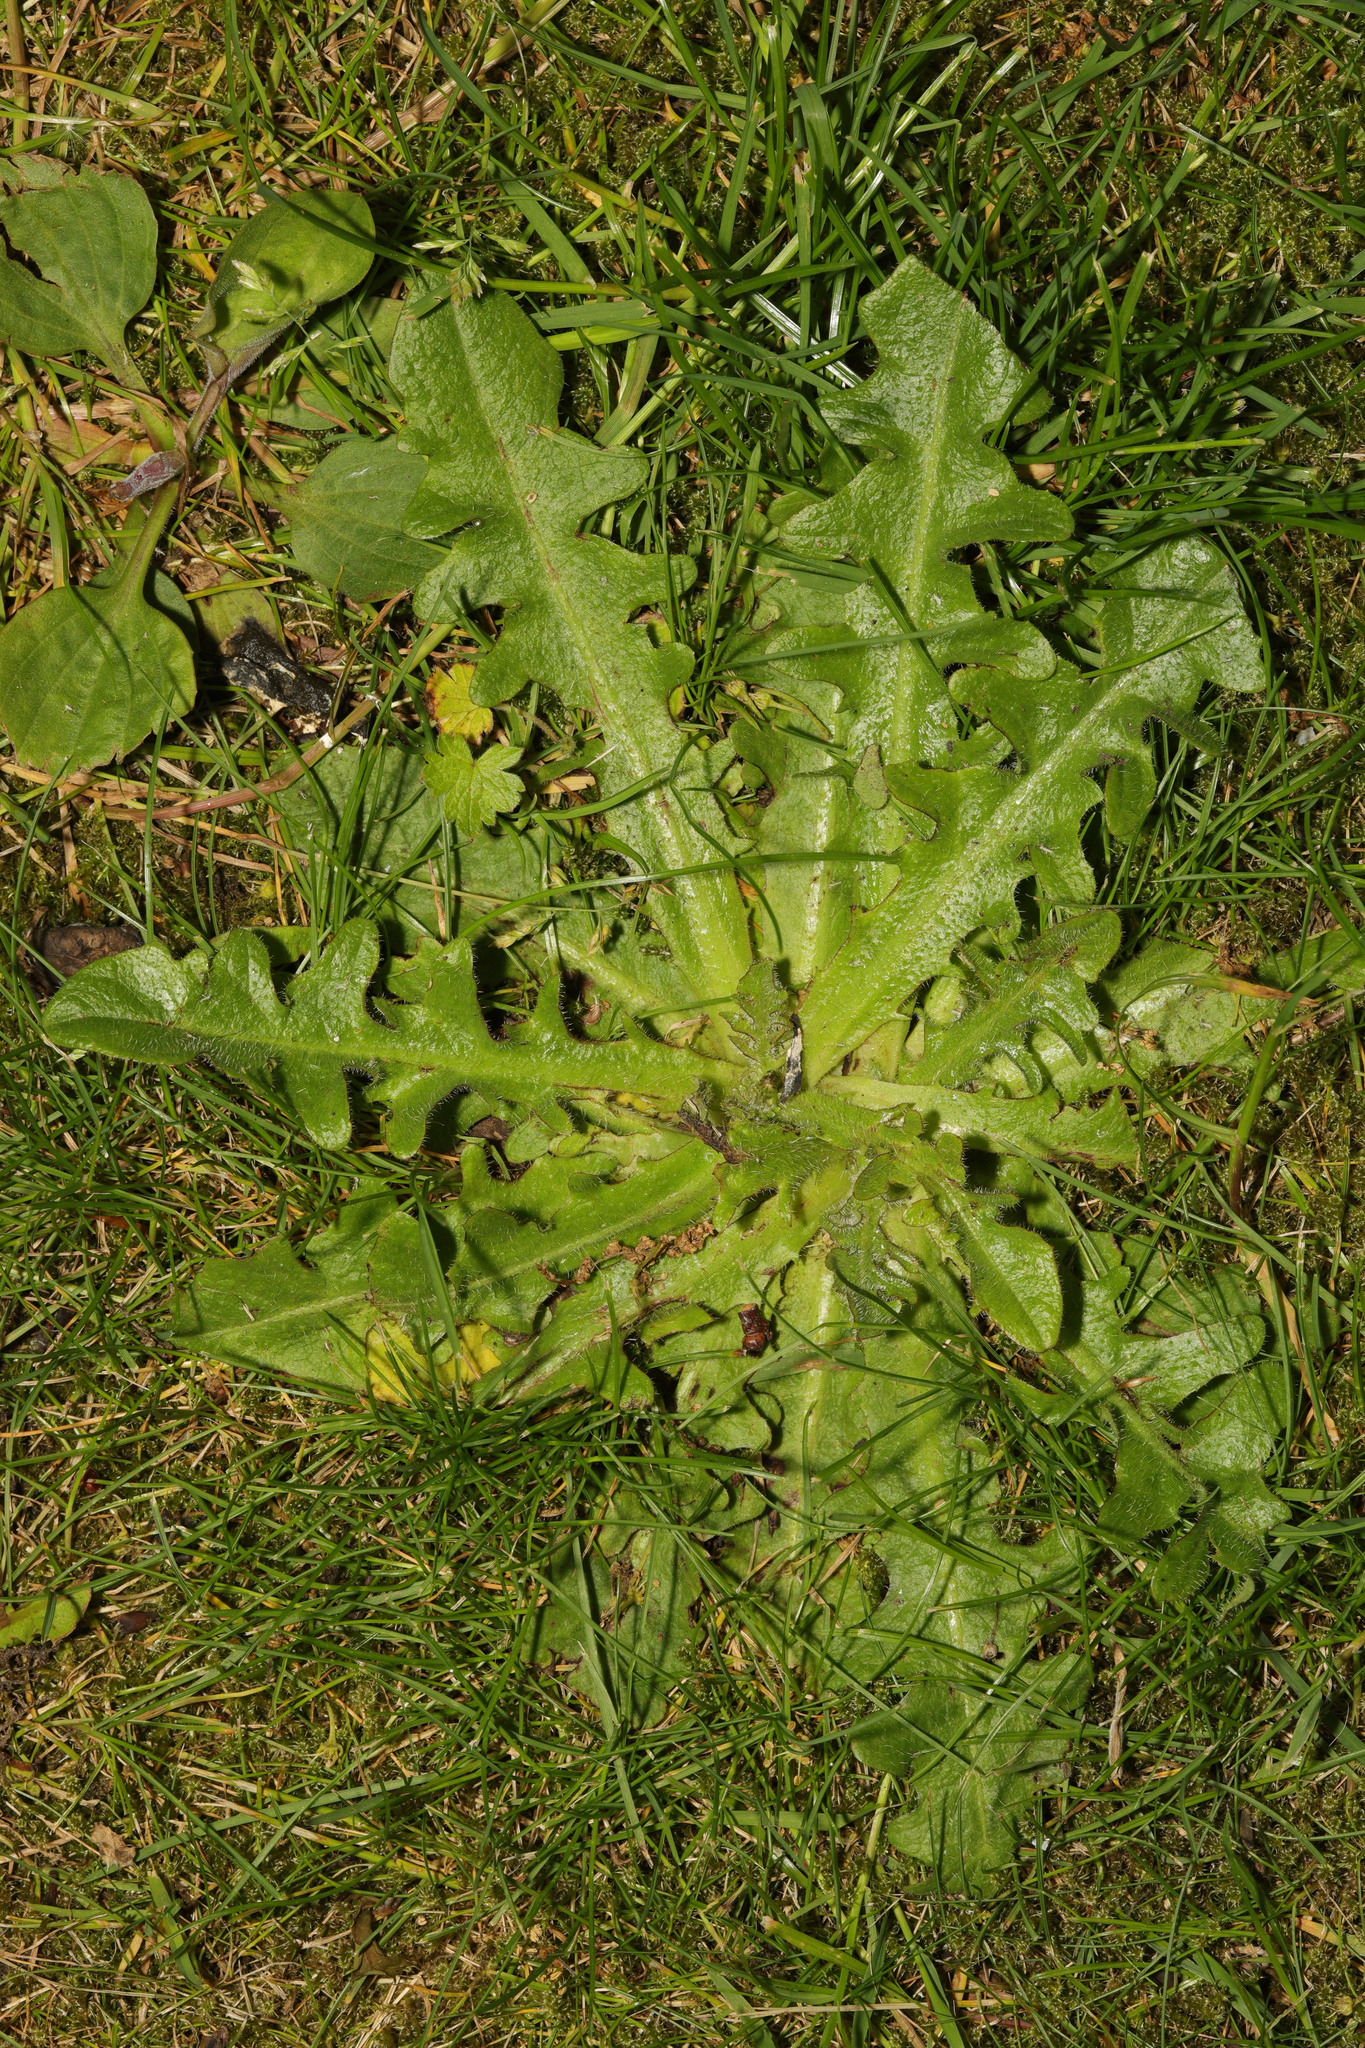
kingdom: Plantae
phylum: Tracheophyta
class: Magnoliopsida
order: Asterales
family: Asteraceae
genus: Hypochaeris
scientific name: Hypochaeris radicata
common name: Flatweed
